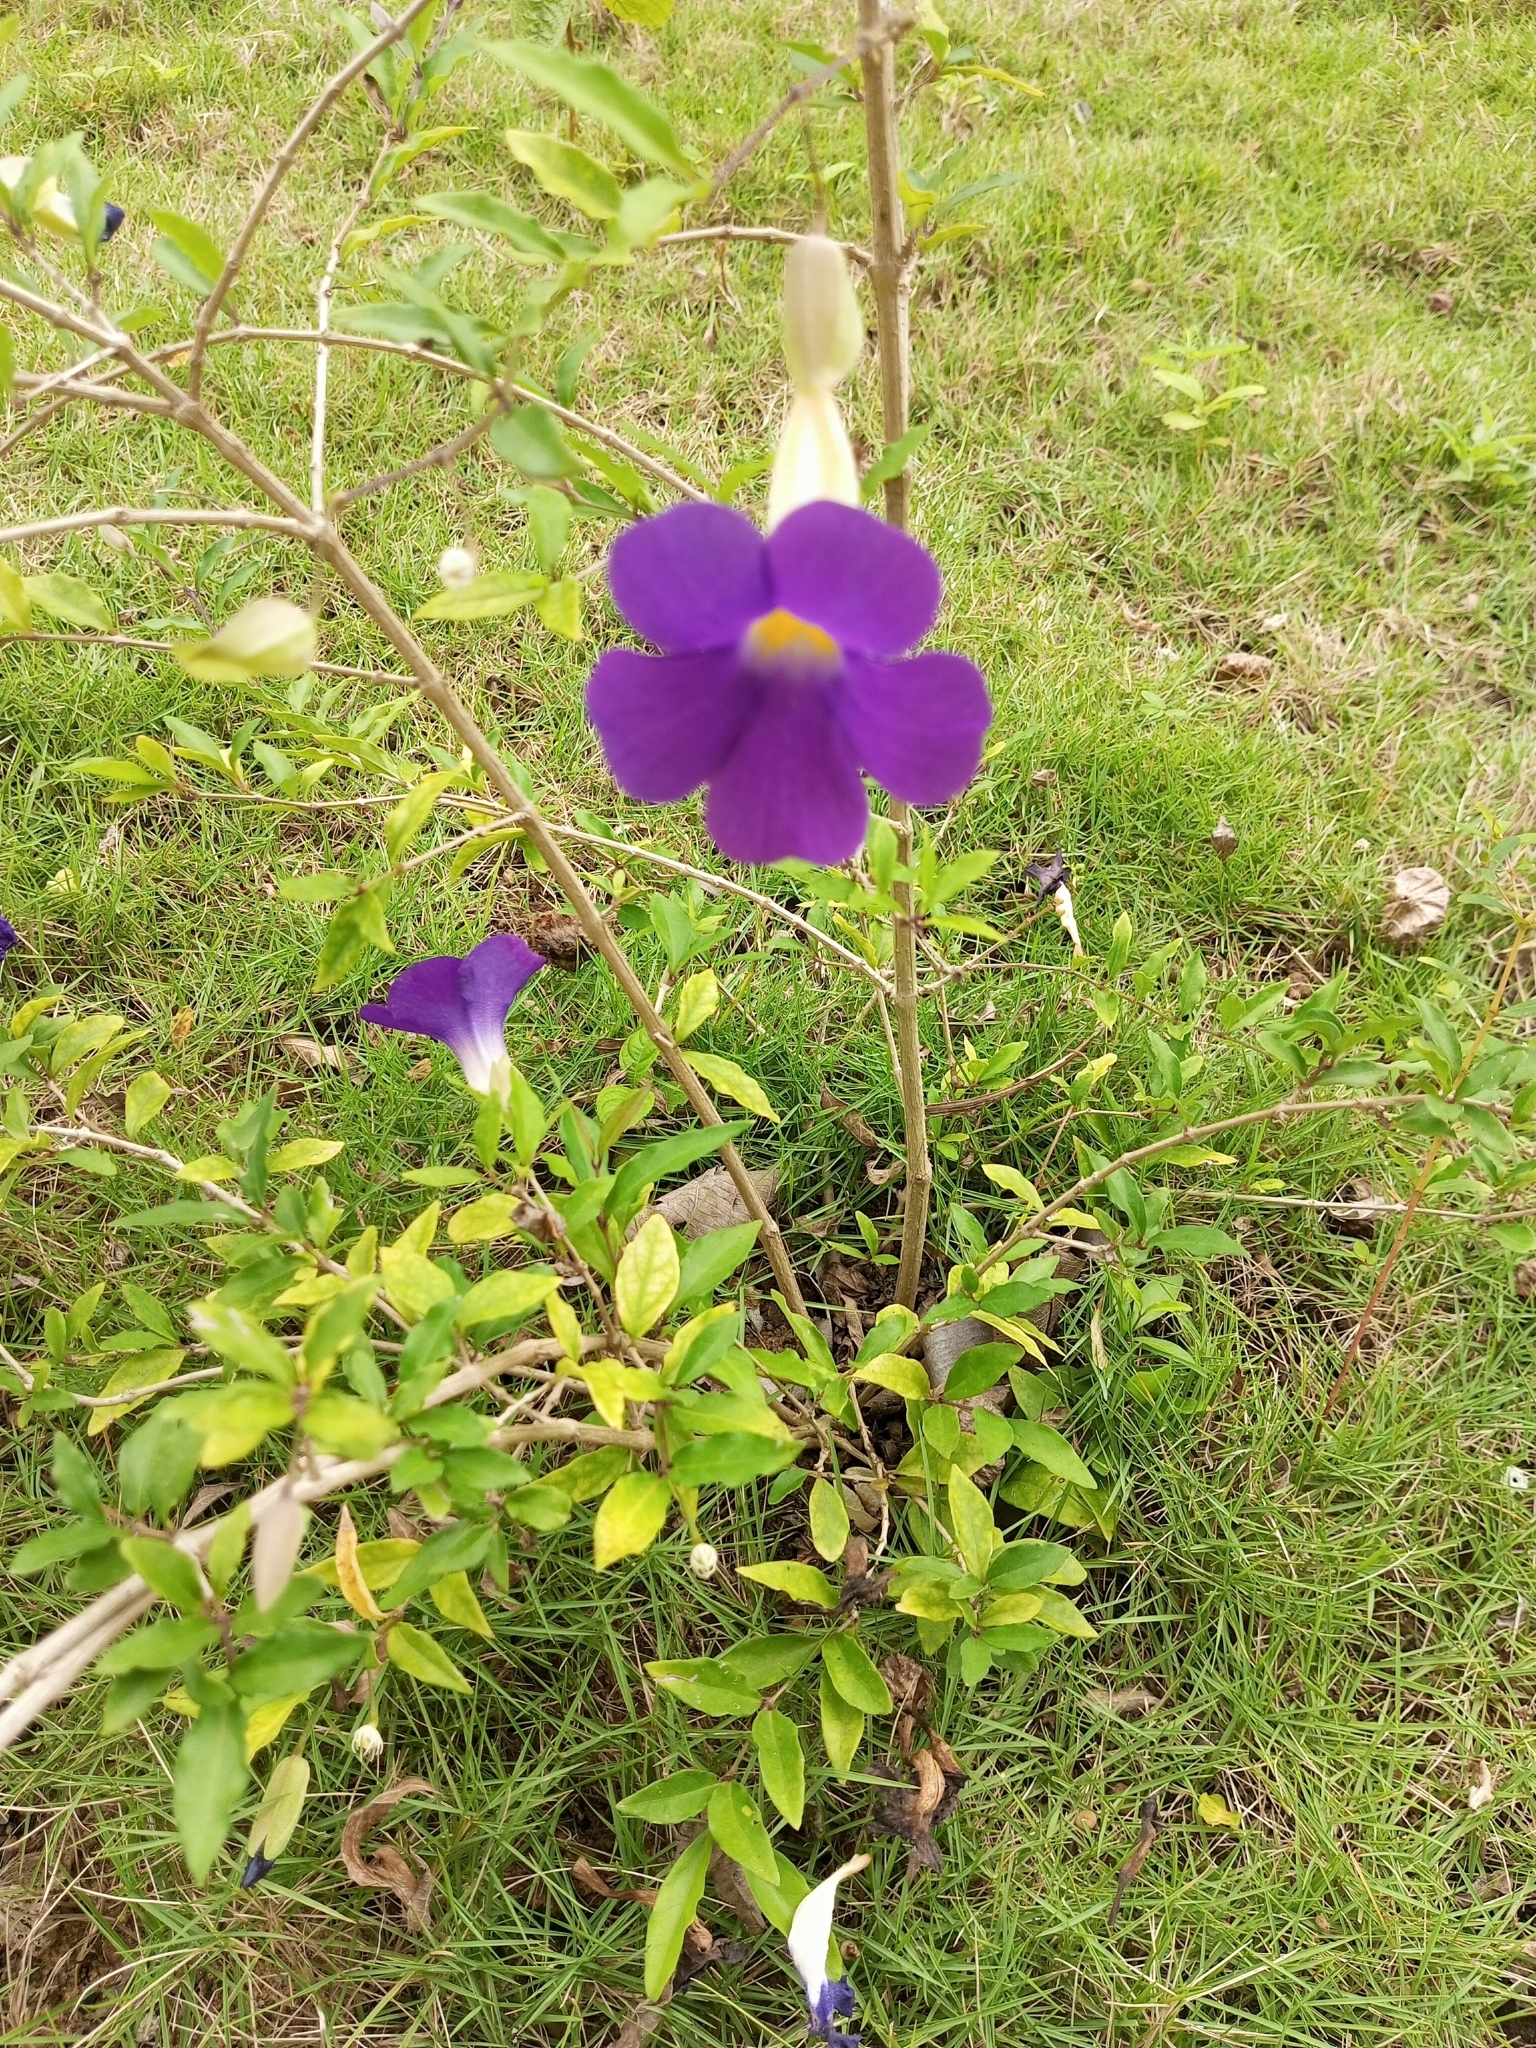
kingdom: Plantae
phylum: Tracheophyta
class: Magnoliopsida
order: Lamiales
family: Acanthaceae
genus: Thunbergia
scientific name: Thunbergia erecta
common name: Bush clockvine
